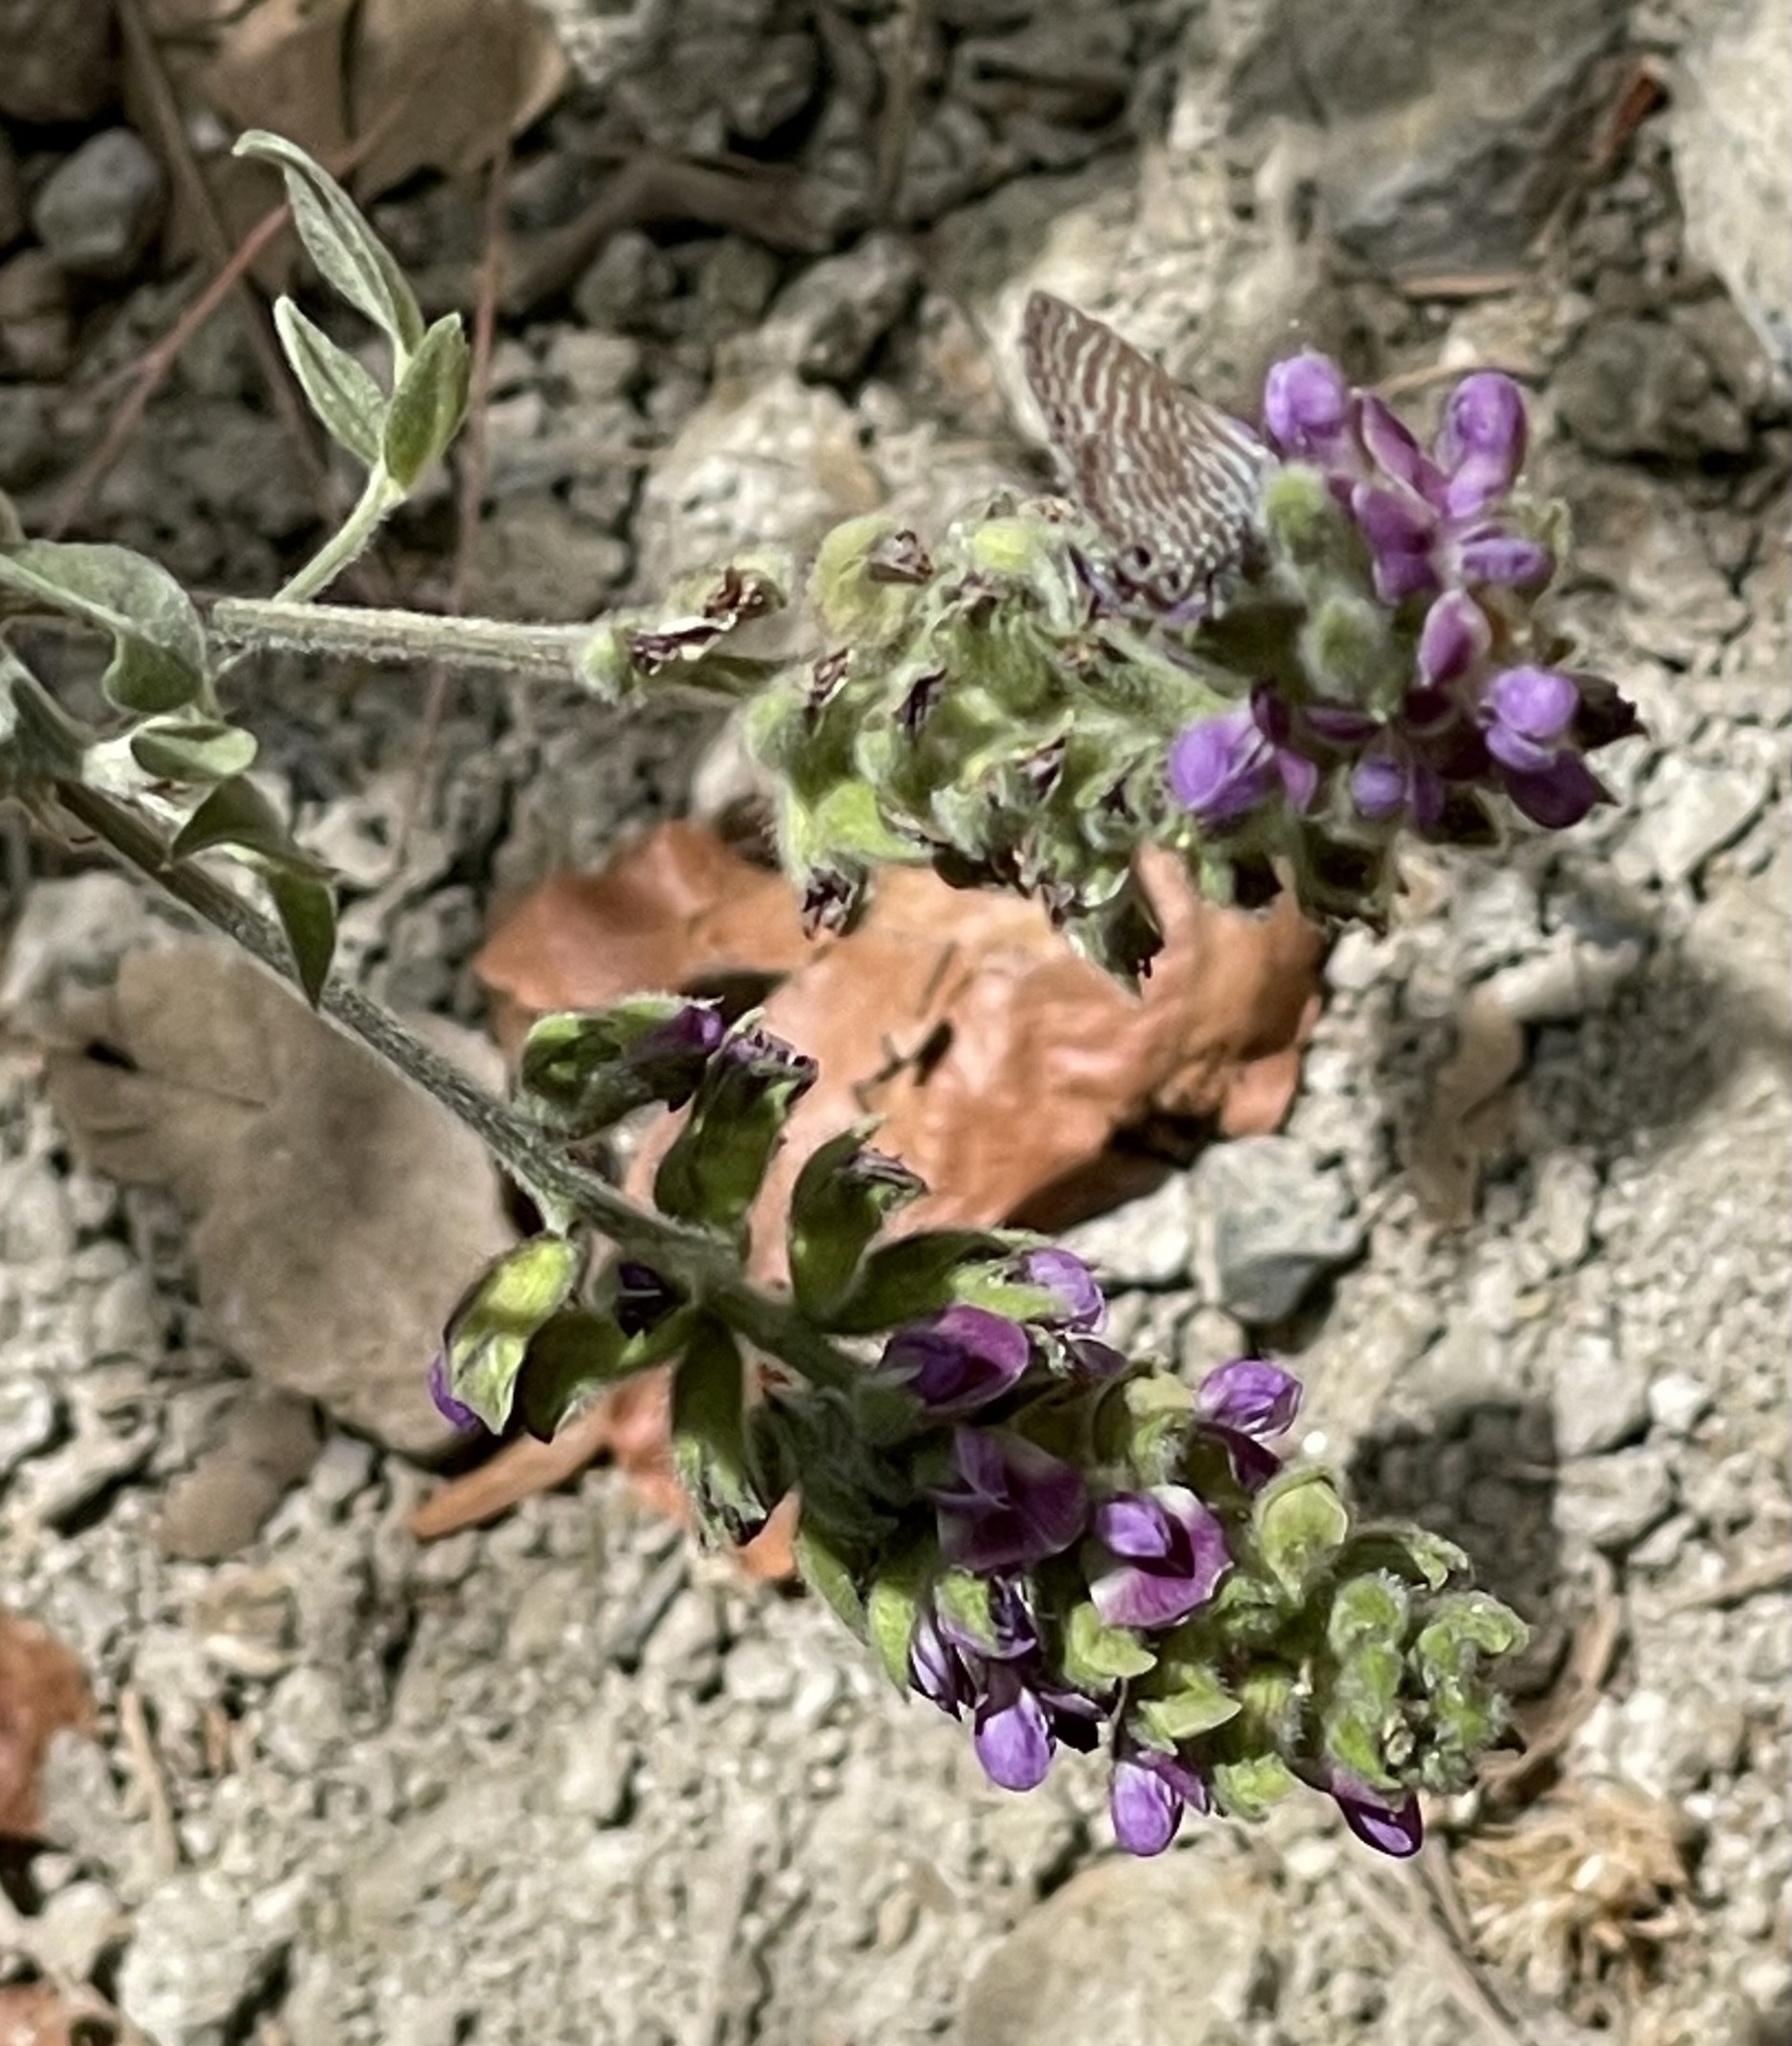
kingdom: Plantae
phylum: Tracheophyta
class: Magnoliopsida
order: Fabales
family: Fabaceae
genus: Hoita
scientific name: Hoita macrostachya
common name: Leatherroot
